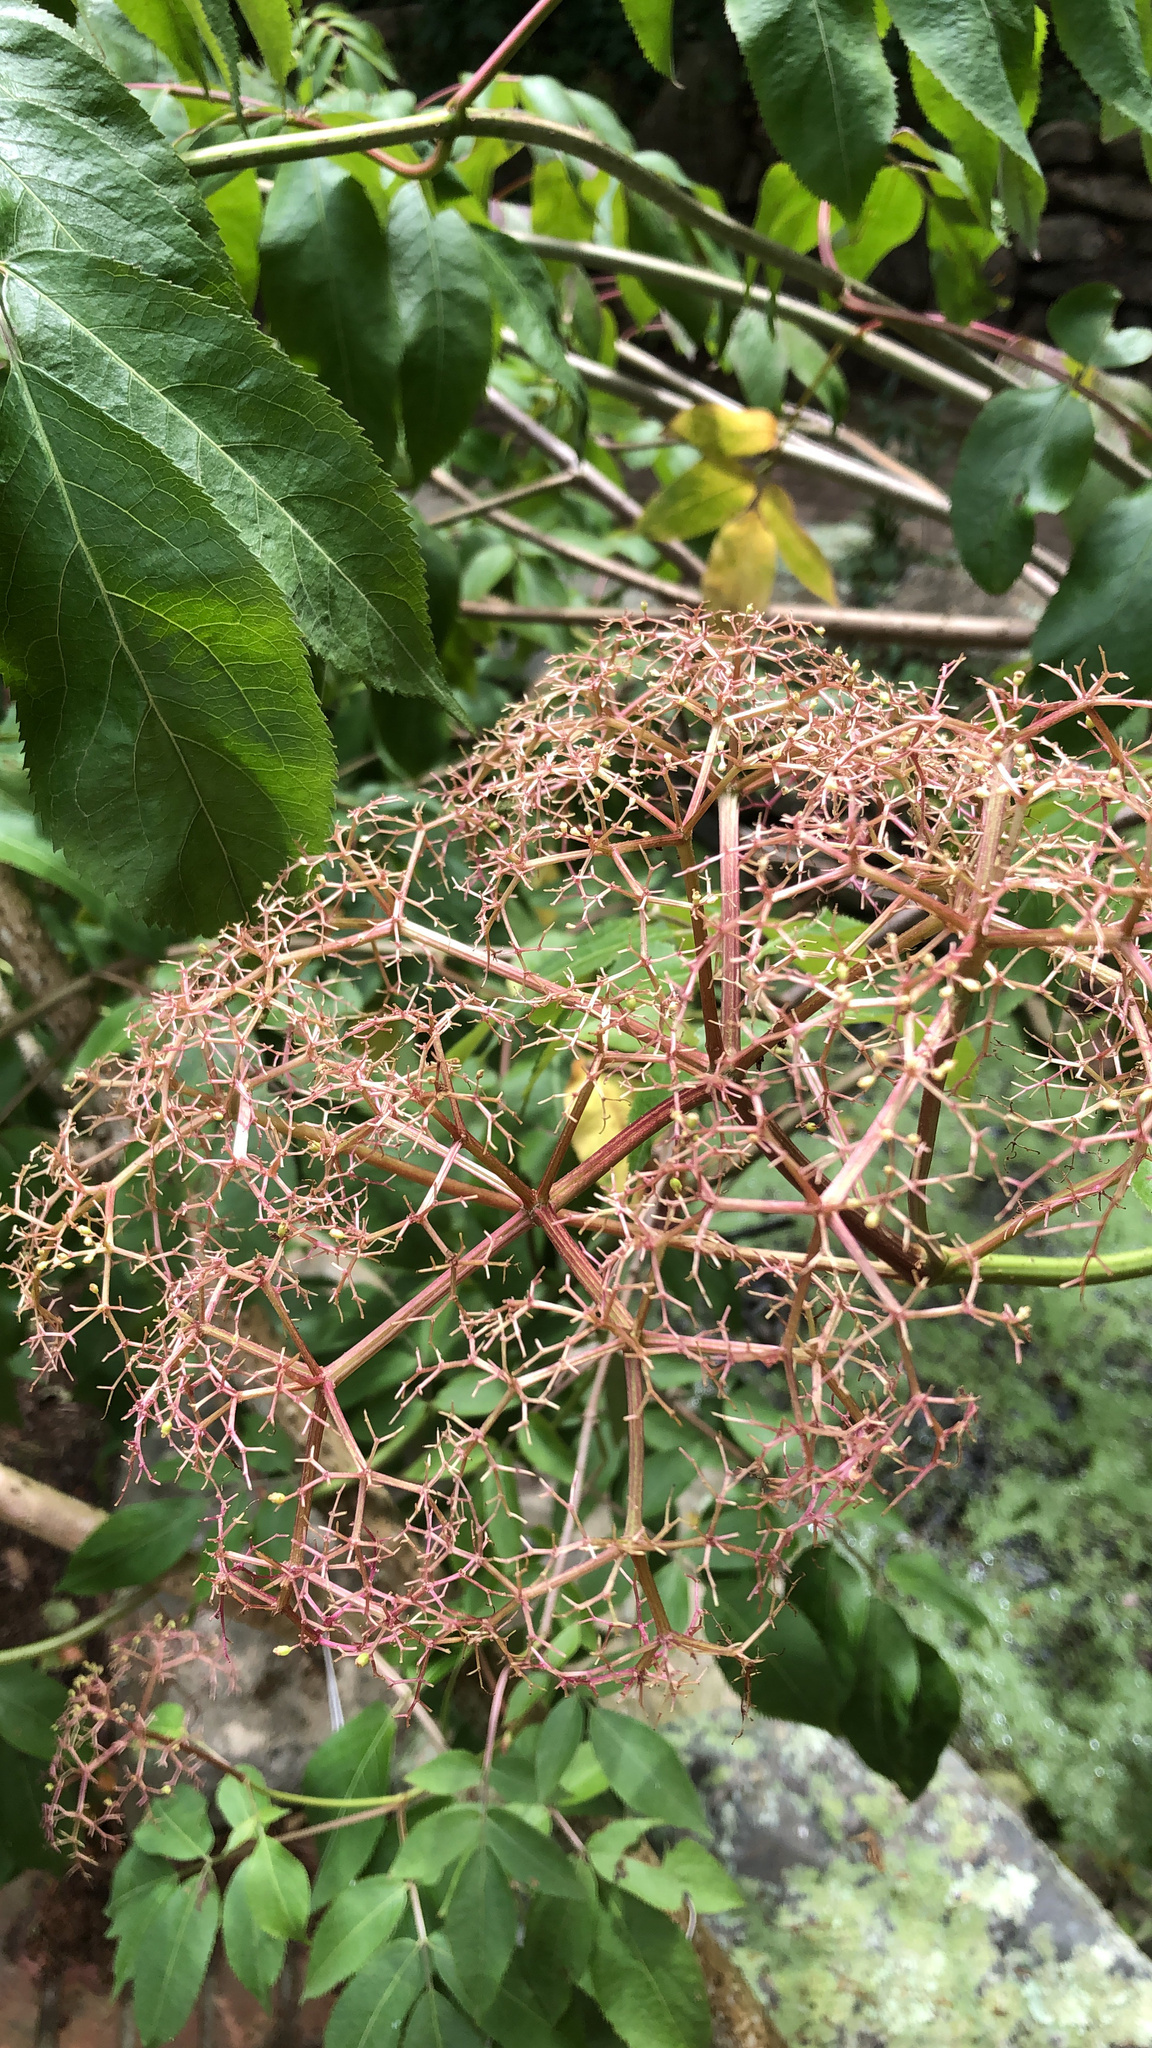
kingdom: Plantae
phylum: Tracheophyta
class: Magnoliopsida
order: Dipsacales
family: Viburnaceae
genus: Sambucus
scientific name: Sambucus canadensis
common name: American elder
